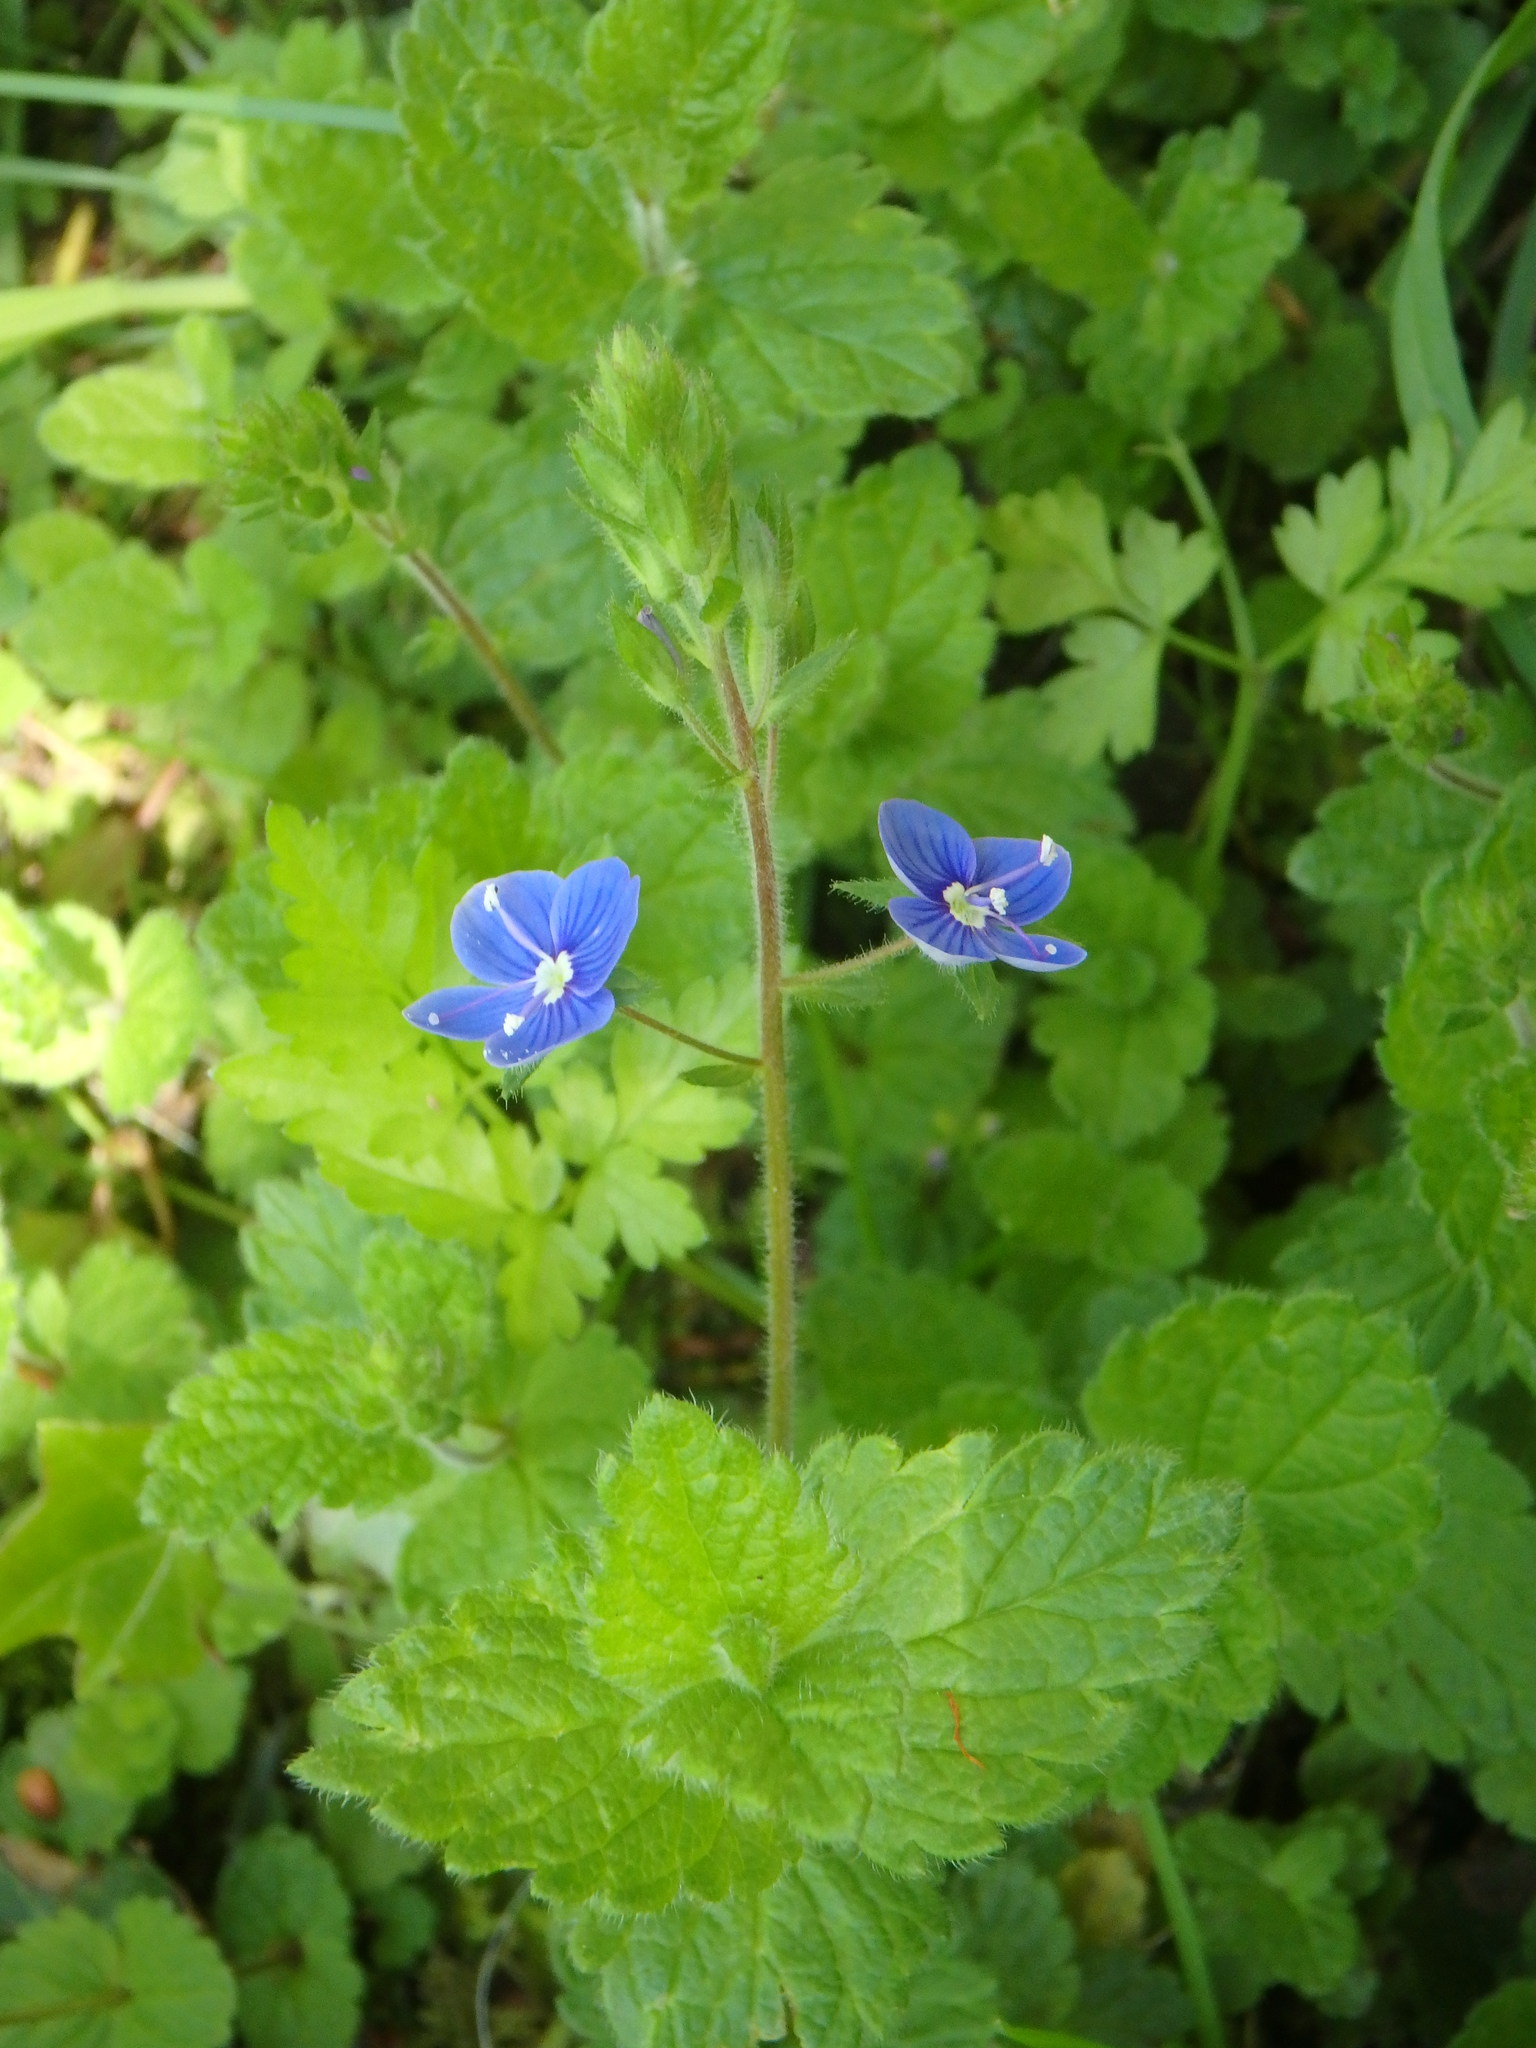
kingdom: Plantae
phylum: Tracheophyta
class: Magnoliopsida
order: Lamiales
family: Plantaginaceae
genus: Veronica
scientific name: Veronica chamaedrys
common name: Germander speedwell
